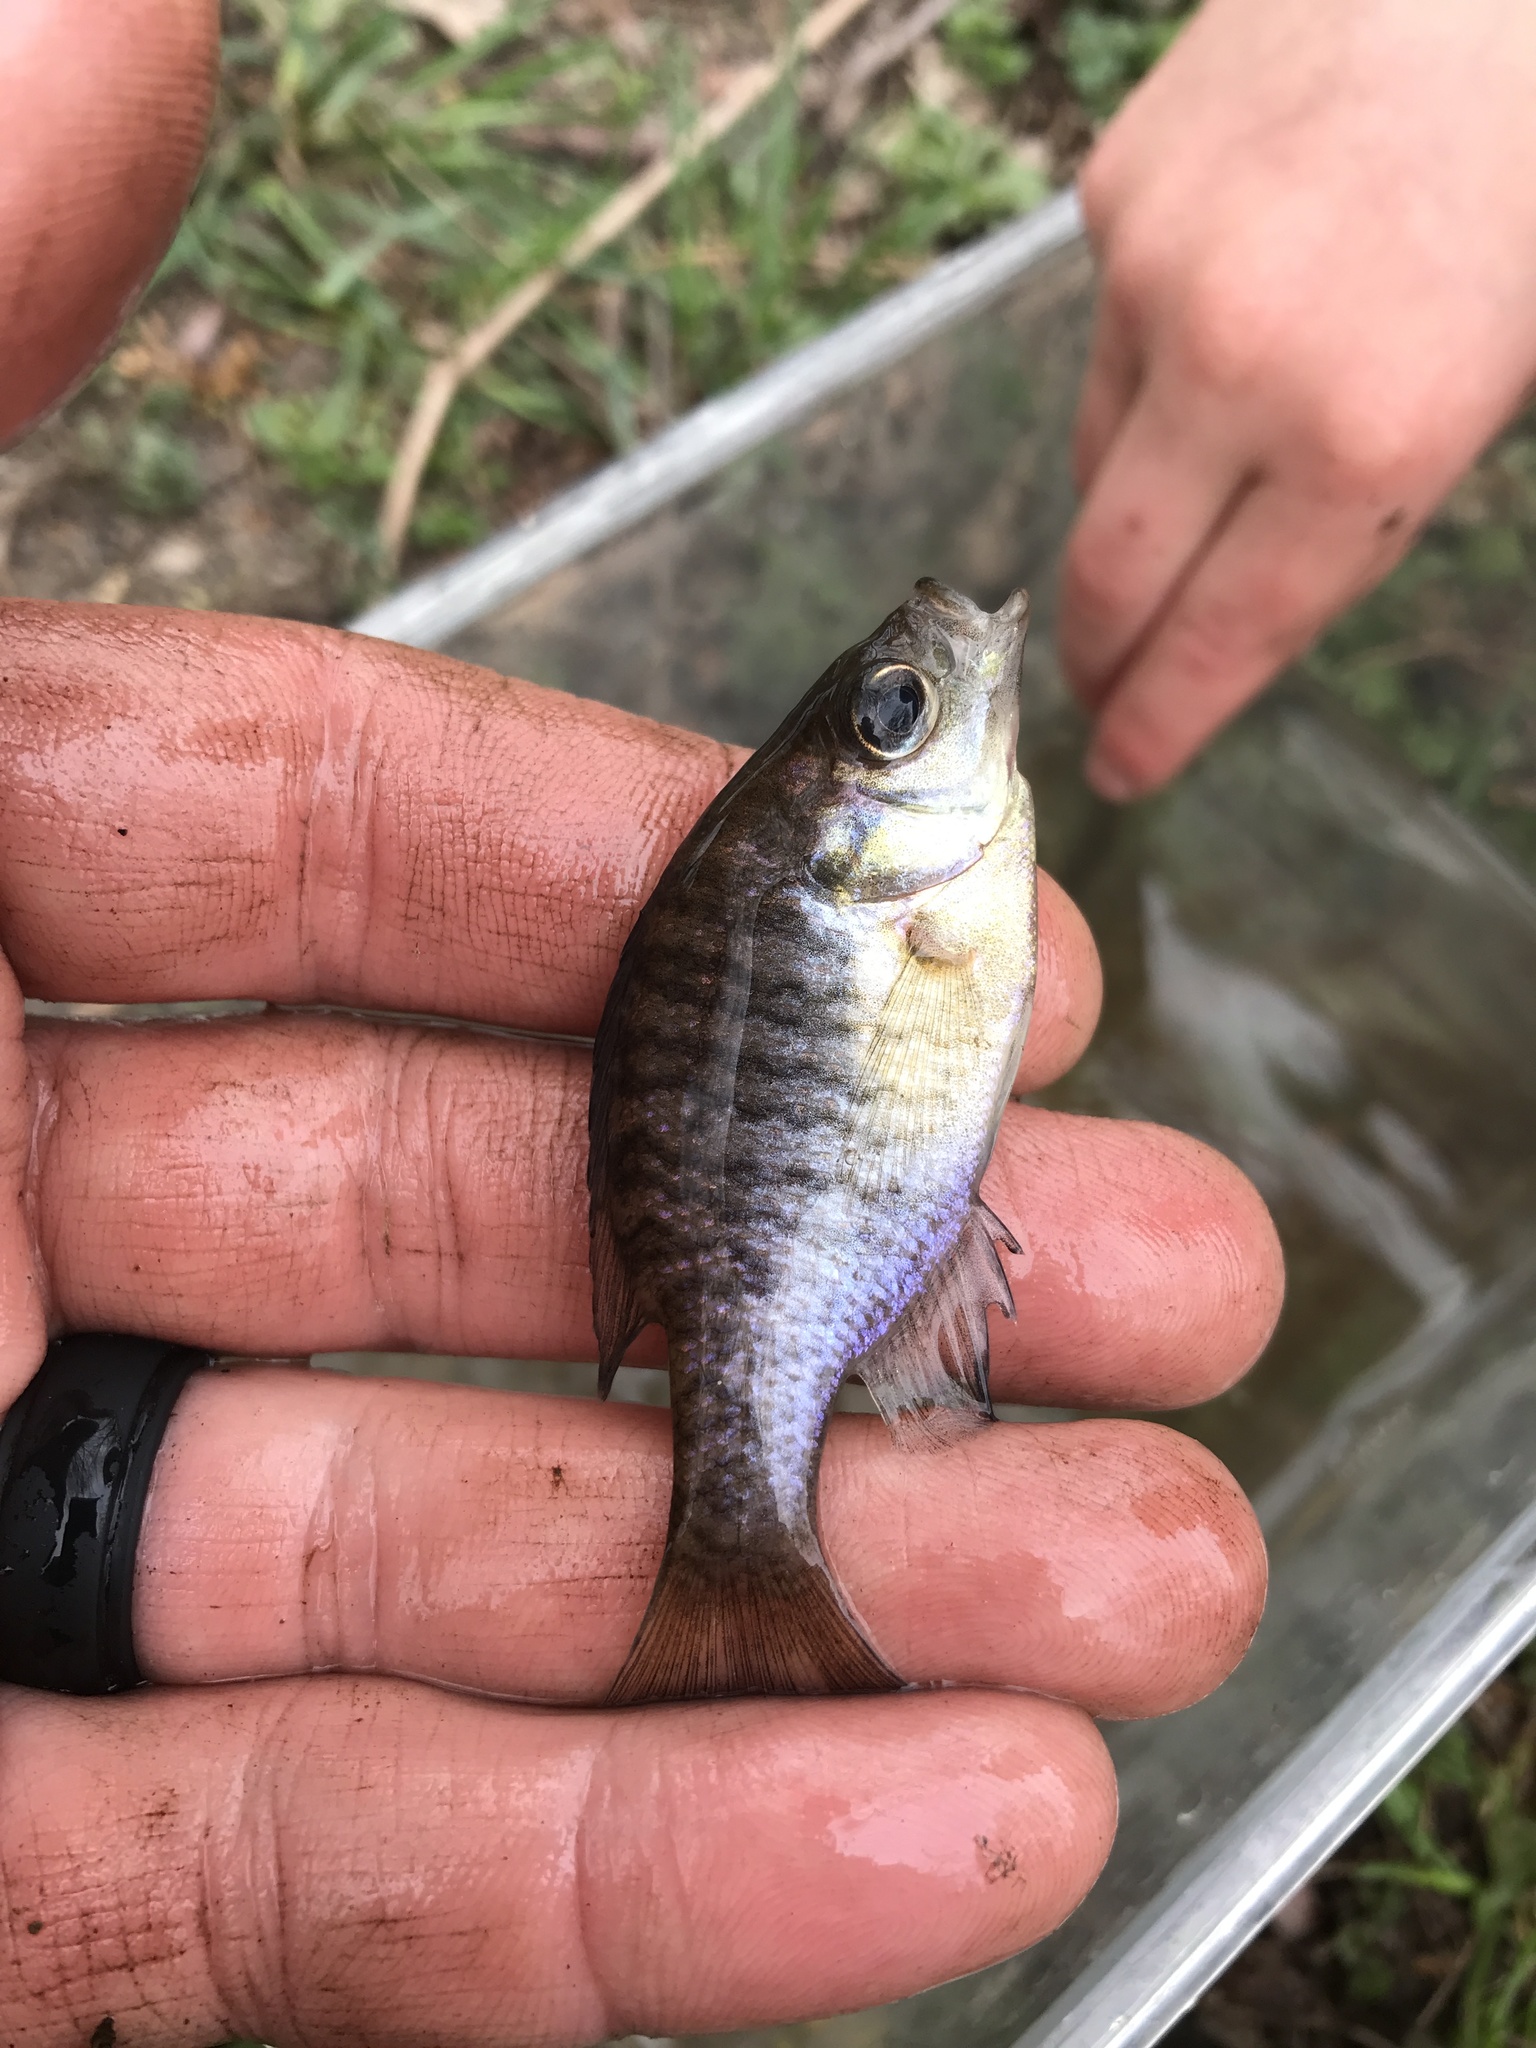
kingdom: Animalia
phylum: Chordata
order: Perciformes
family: Centrarchidae
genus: Lepomis
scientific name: Lepomis macrochirus
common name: Bluegill
